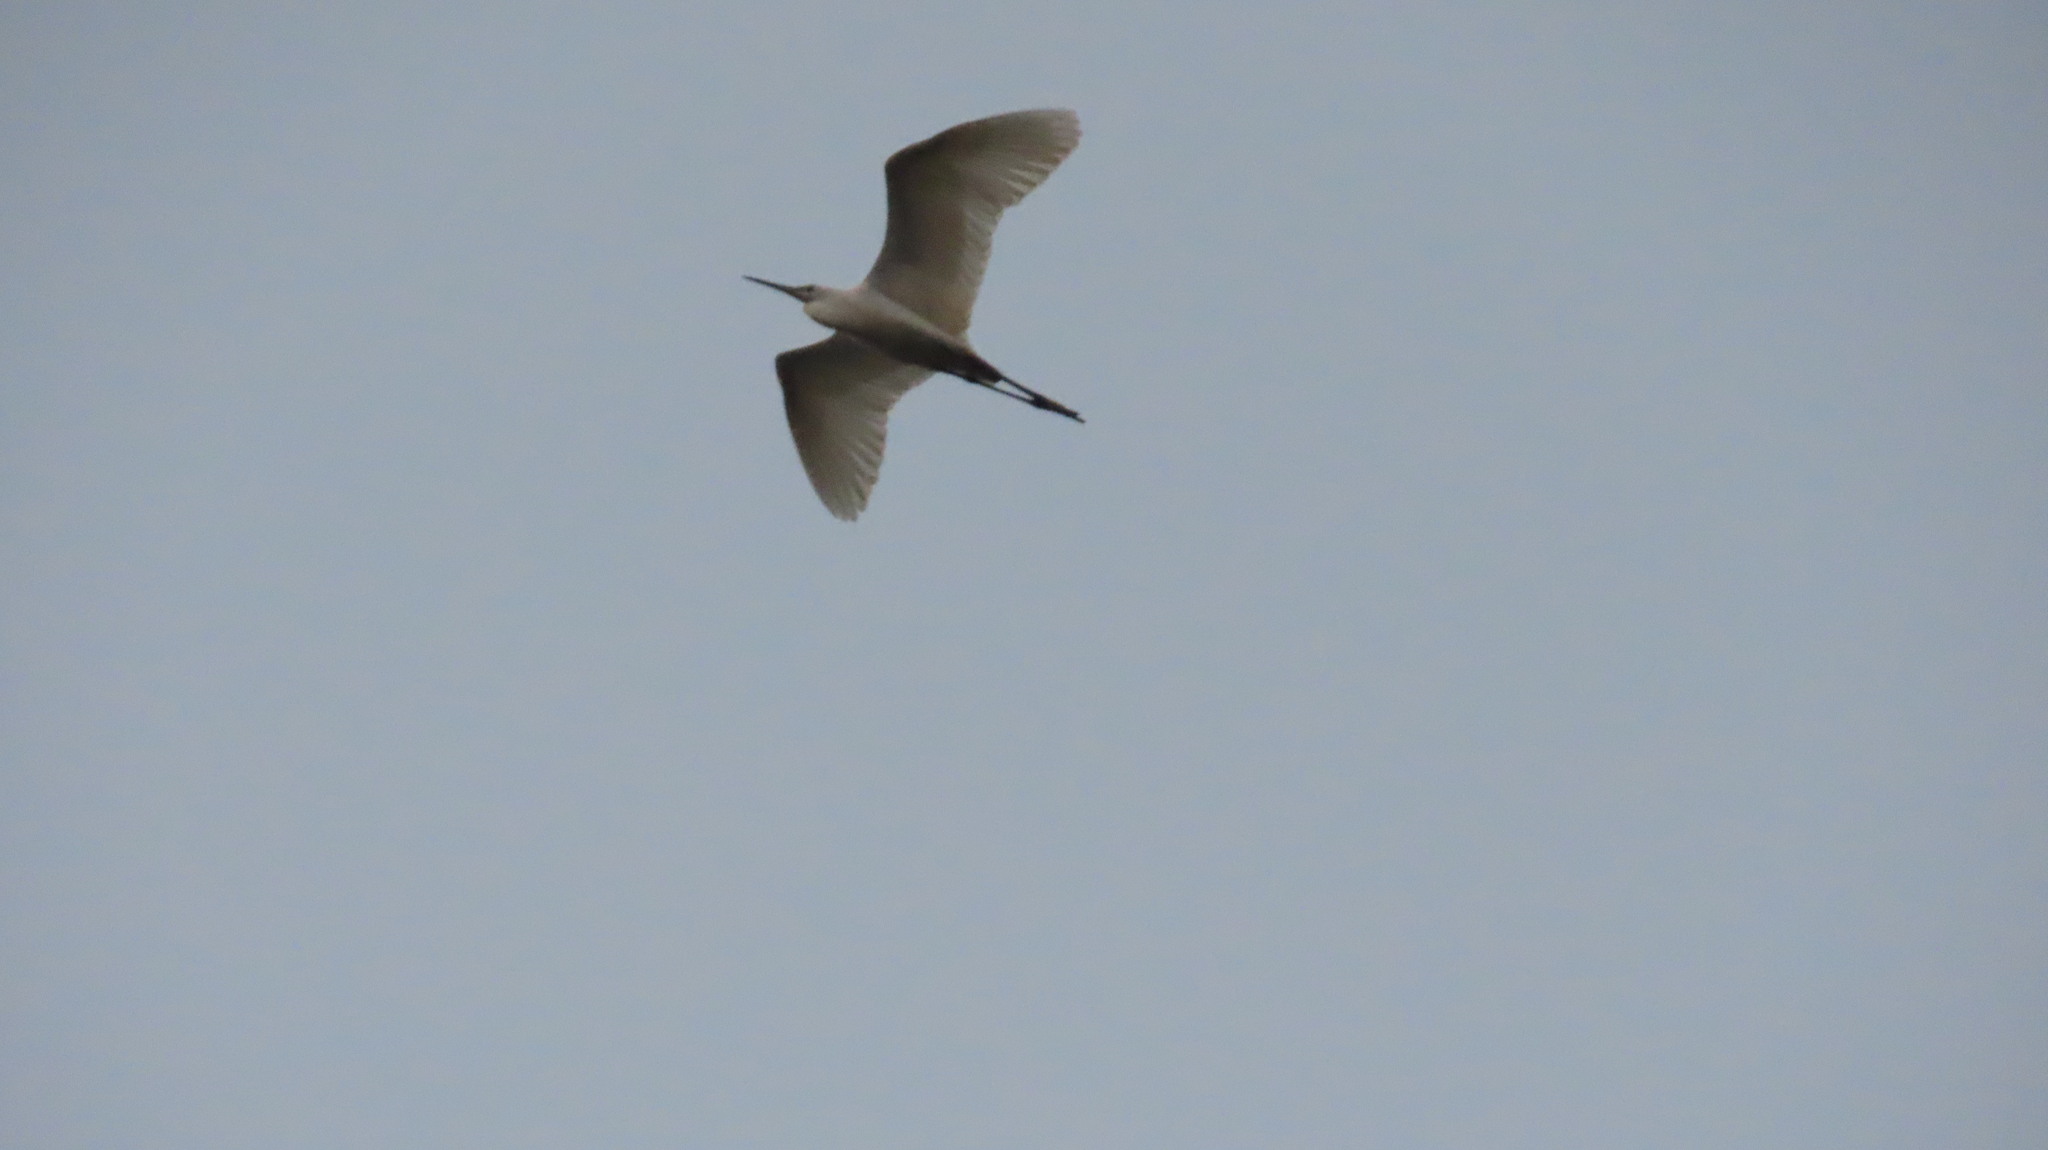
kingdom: Animalia
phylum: Chordata
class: Aves
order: Pelecaniformes
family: Ardeidae
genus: Bubulcus
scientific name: Bubulcus coromandus
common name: Eastern cattle egret
